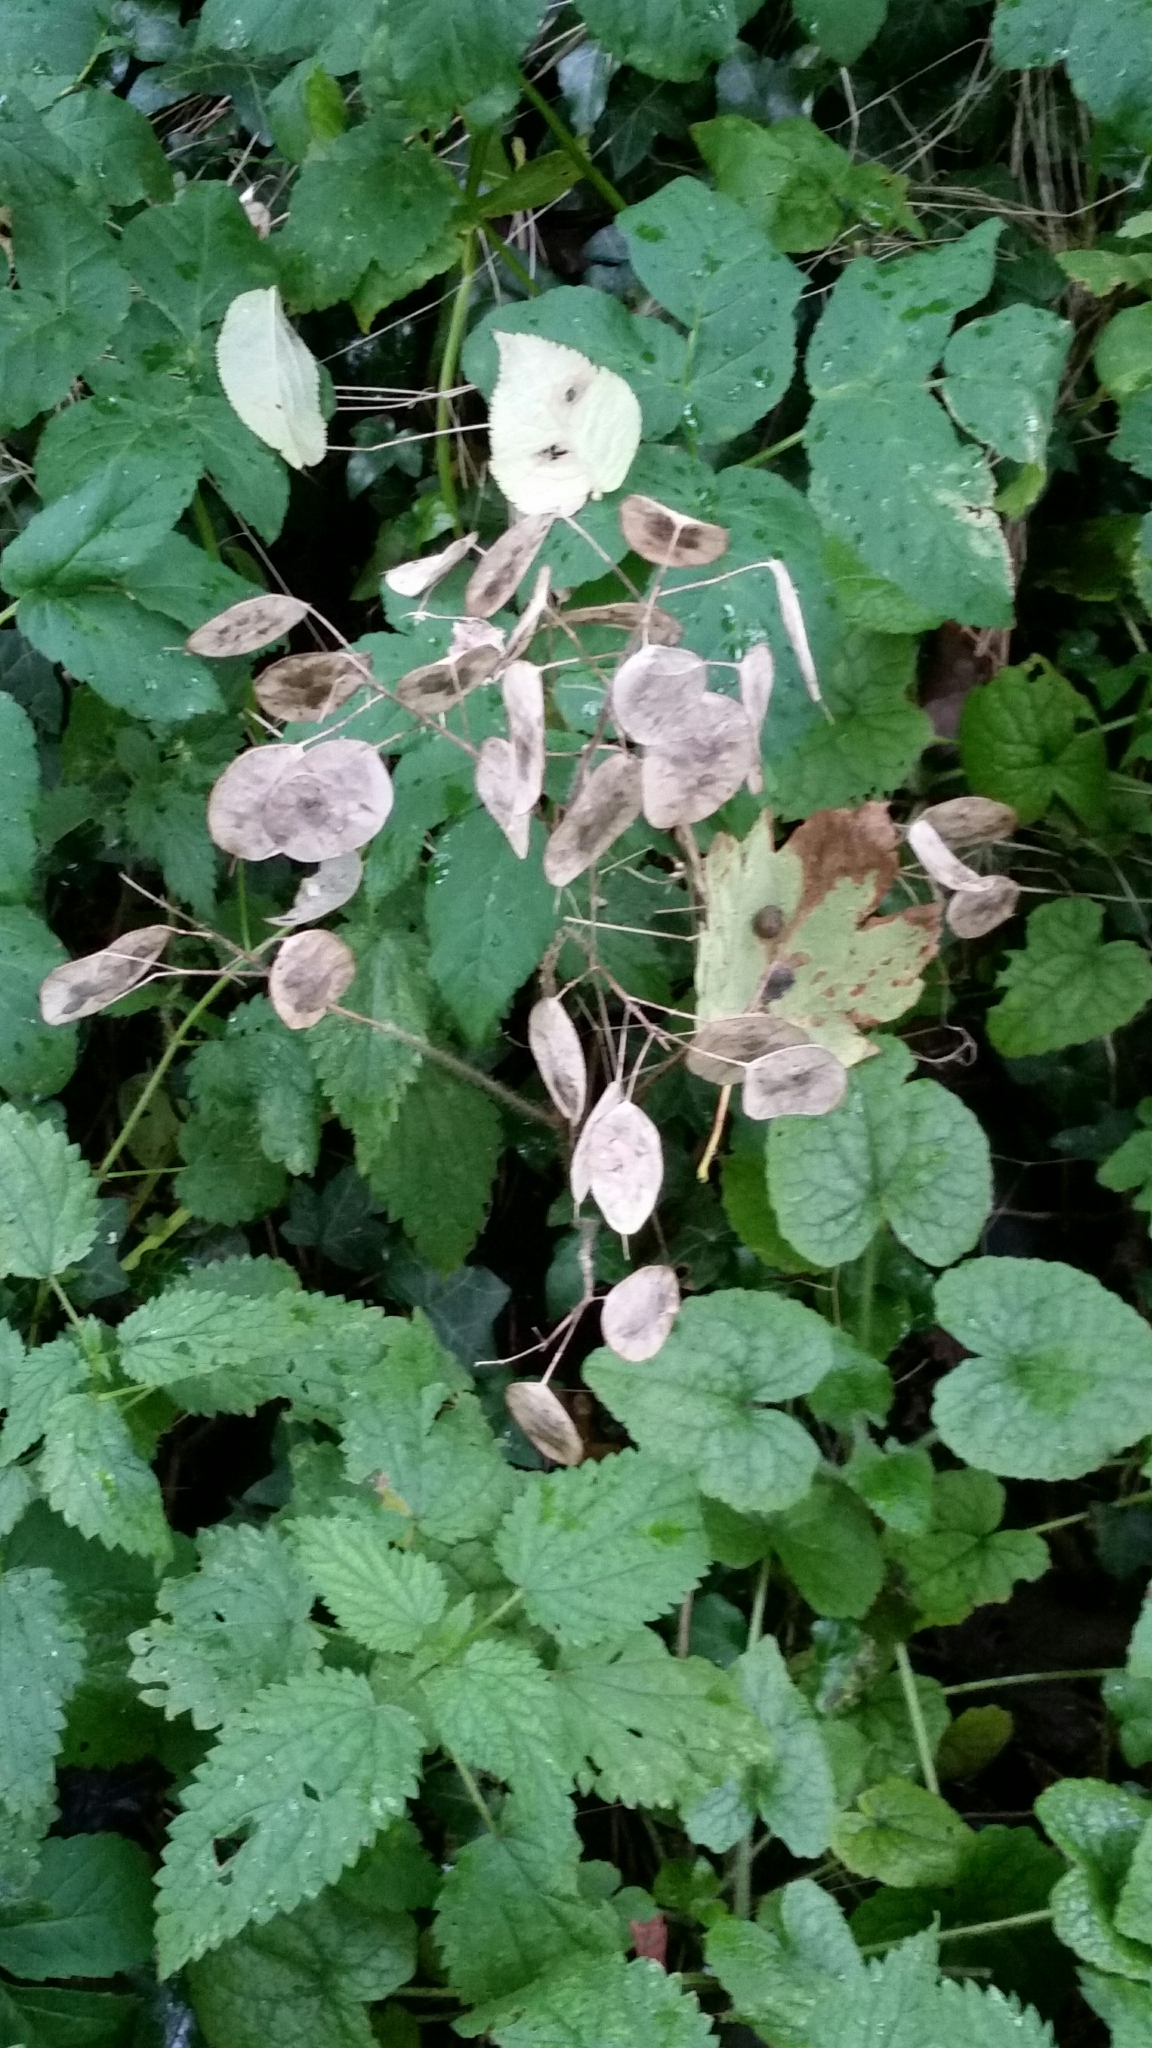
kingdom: Plantae
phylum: Tracheophyta
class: Magnoliopsida
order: Brassicales
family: Brassicaceae
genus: Lunaria
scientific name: Lunaria annua
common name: Honesty
